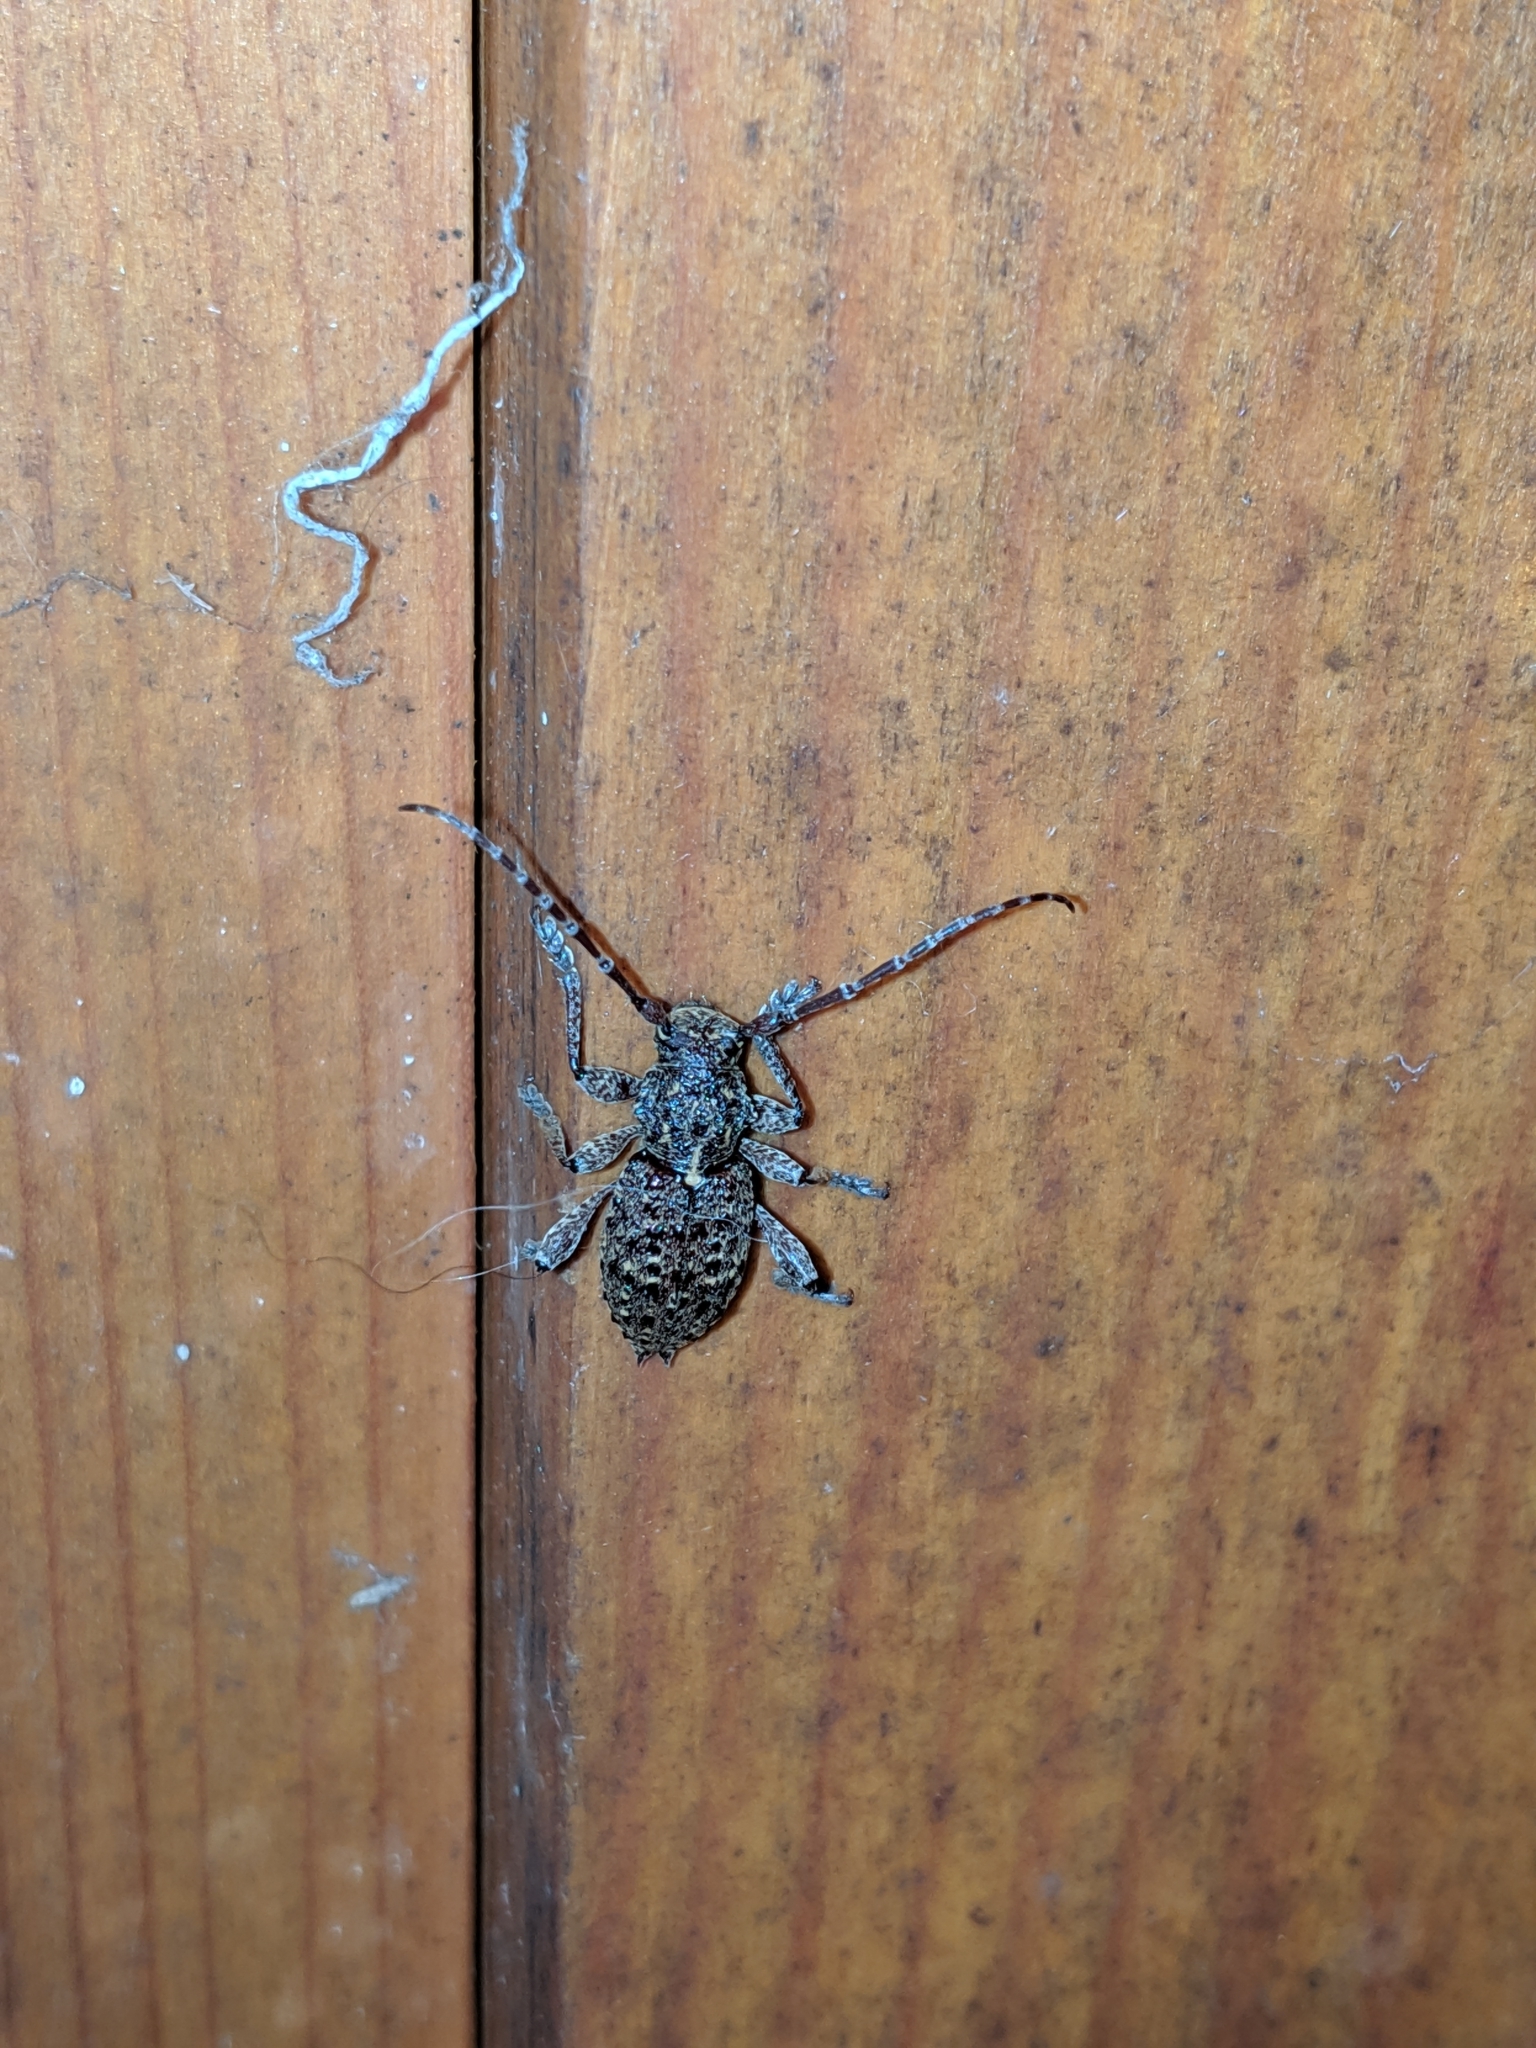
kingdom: Animalia
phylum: Arthropoda
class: Insecta
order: Coleoptera
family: Cerambycidae
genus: Plectrura
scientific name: Plectrura spinicauda
